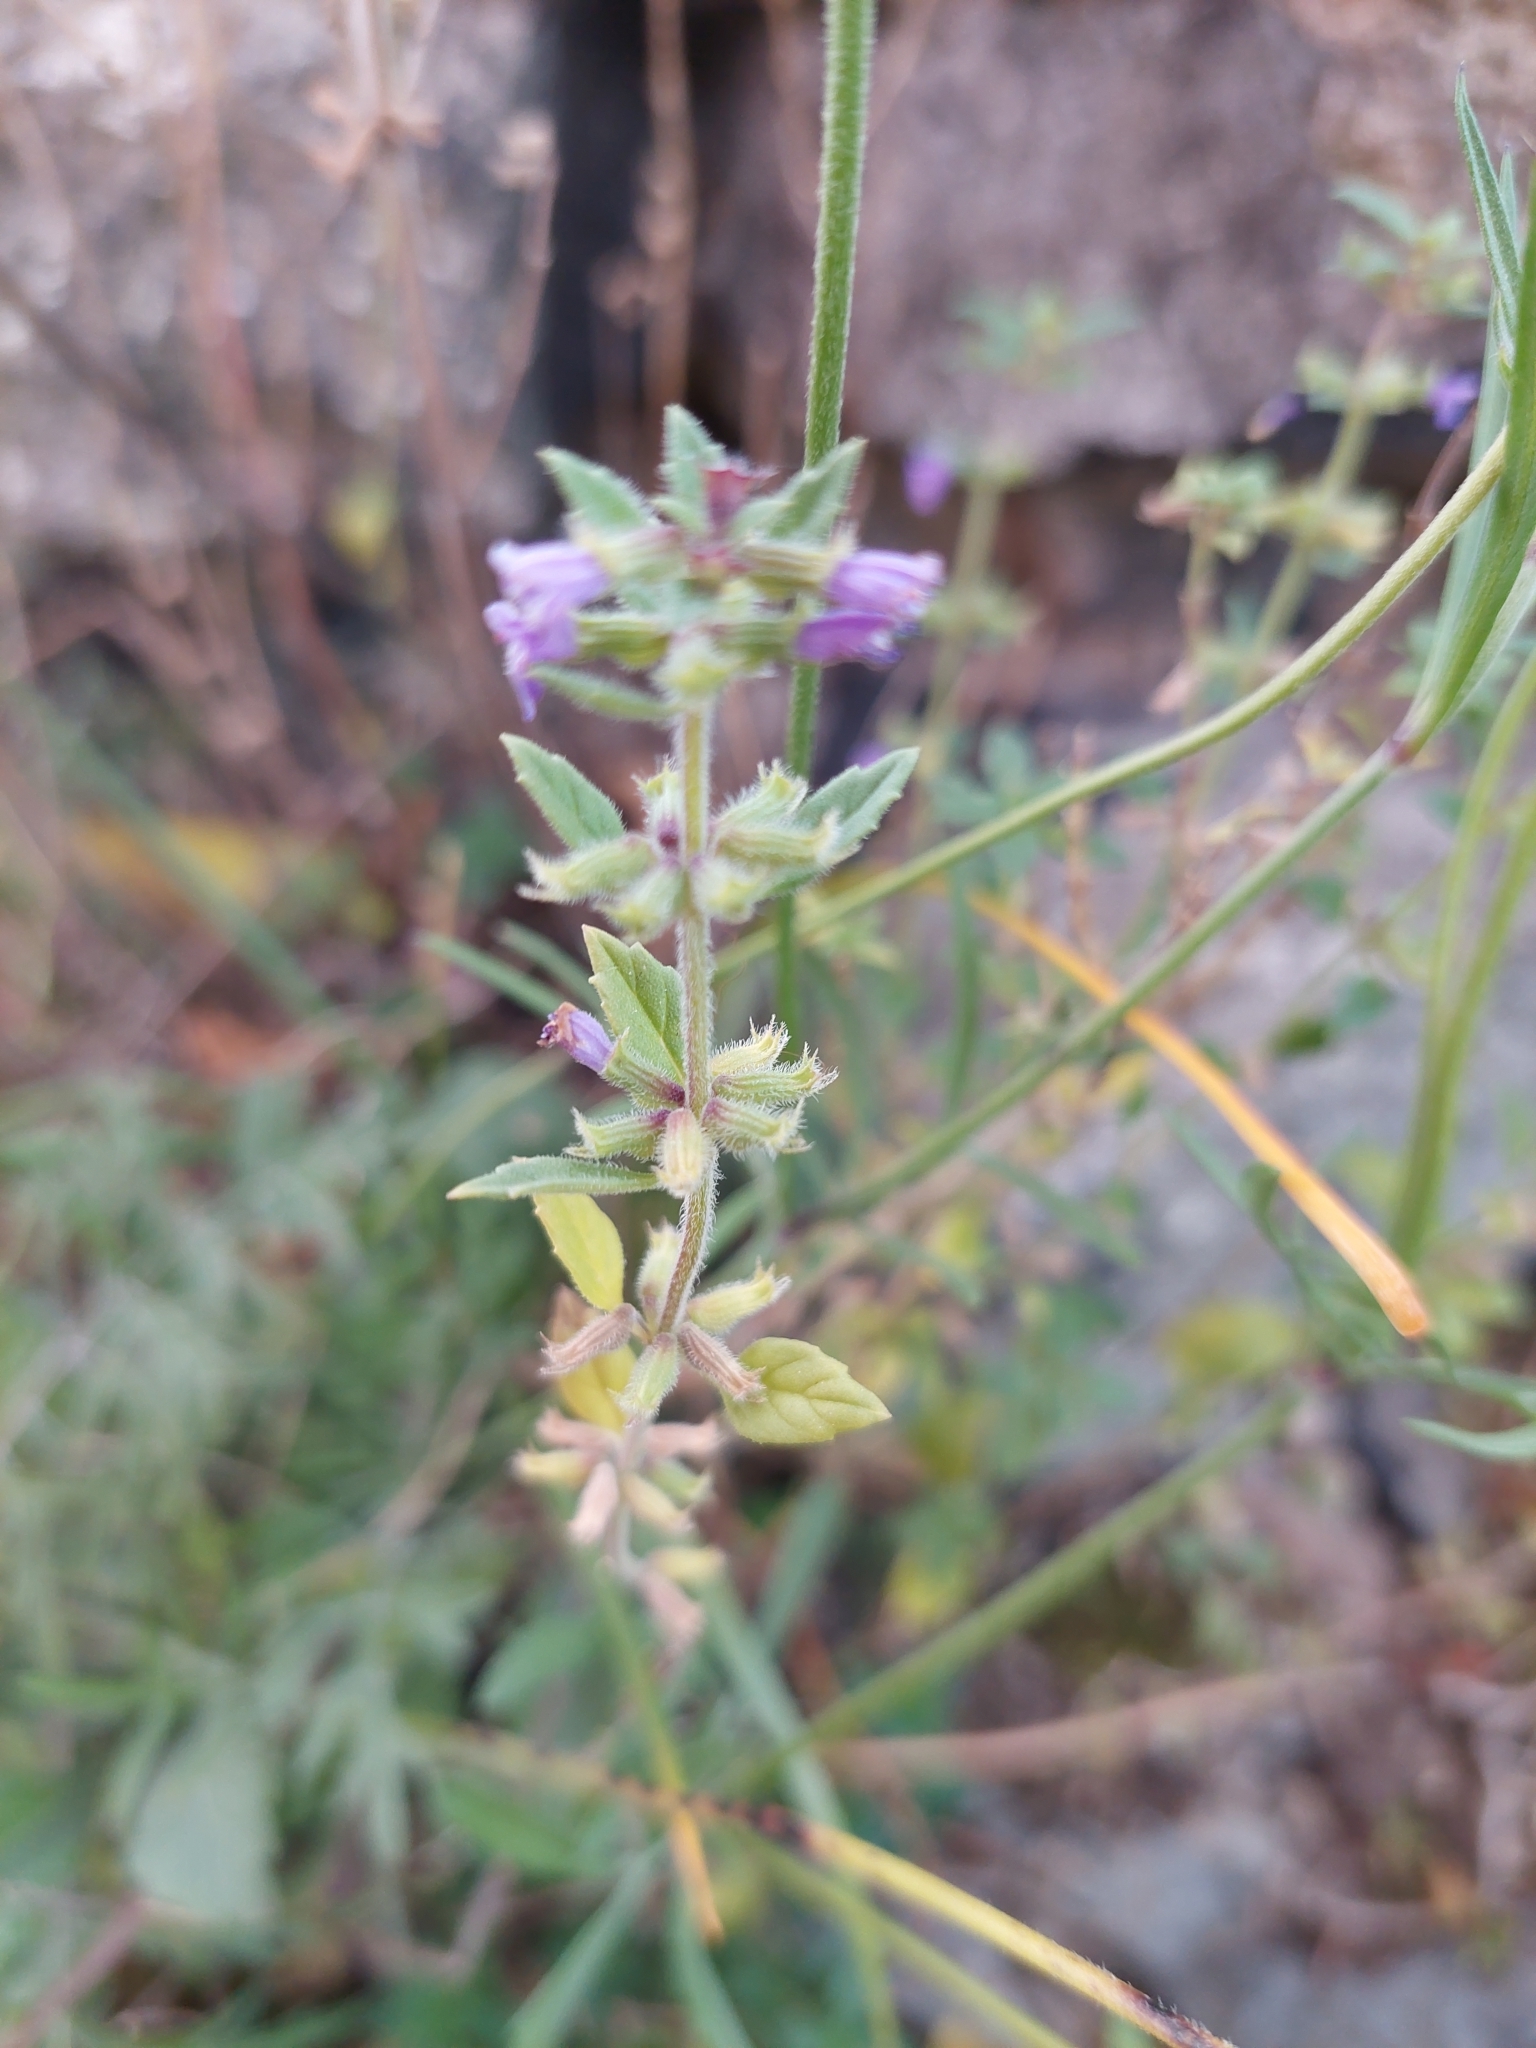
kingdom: Plantae
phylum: Tracheophyta
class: Magnoliopsida
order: Lamiales
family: Lamiaceae
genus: Clinopodium
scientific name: Clinopodium acinos
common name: Basil thyme
